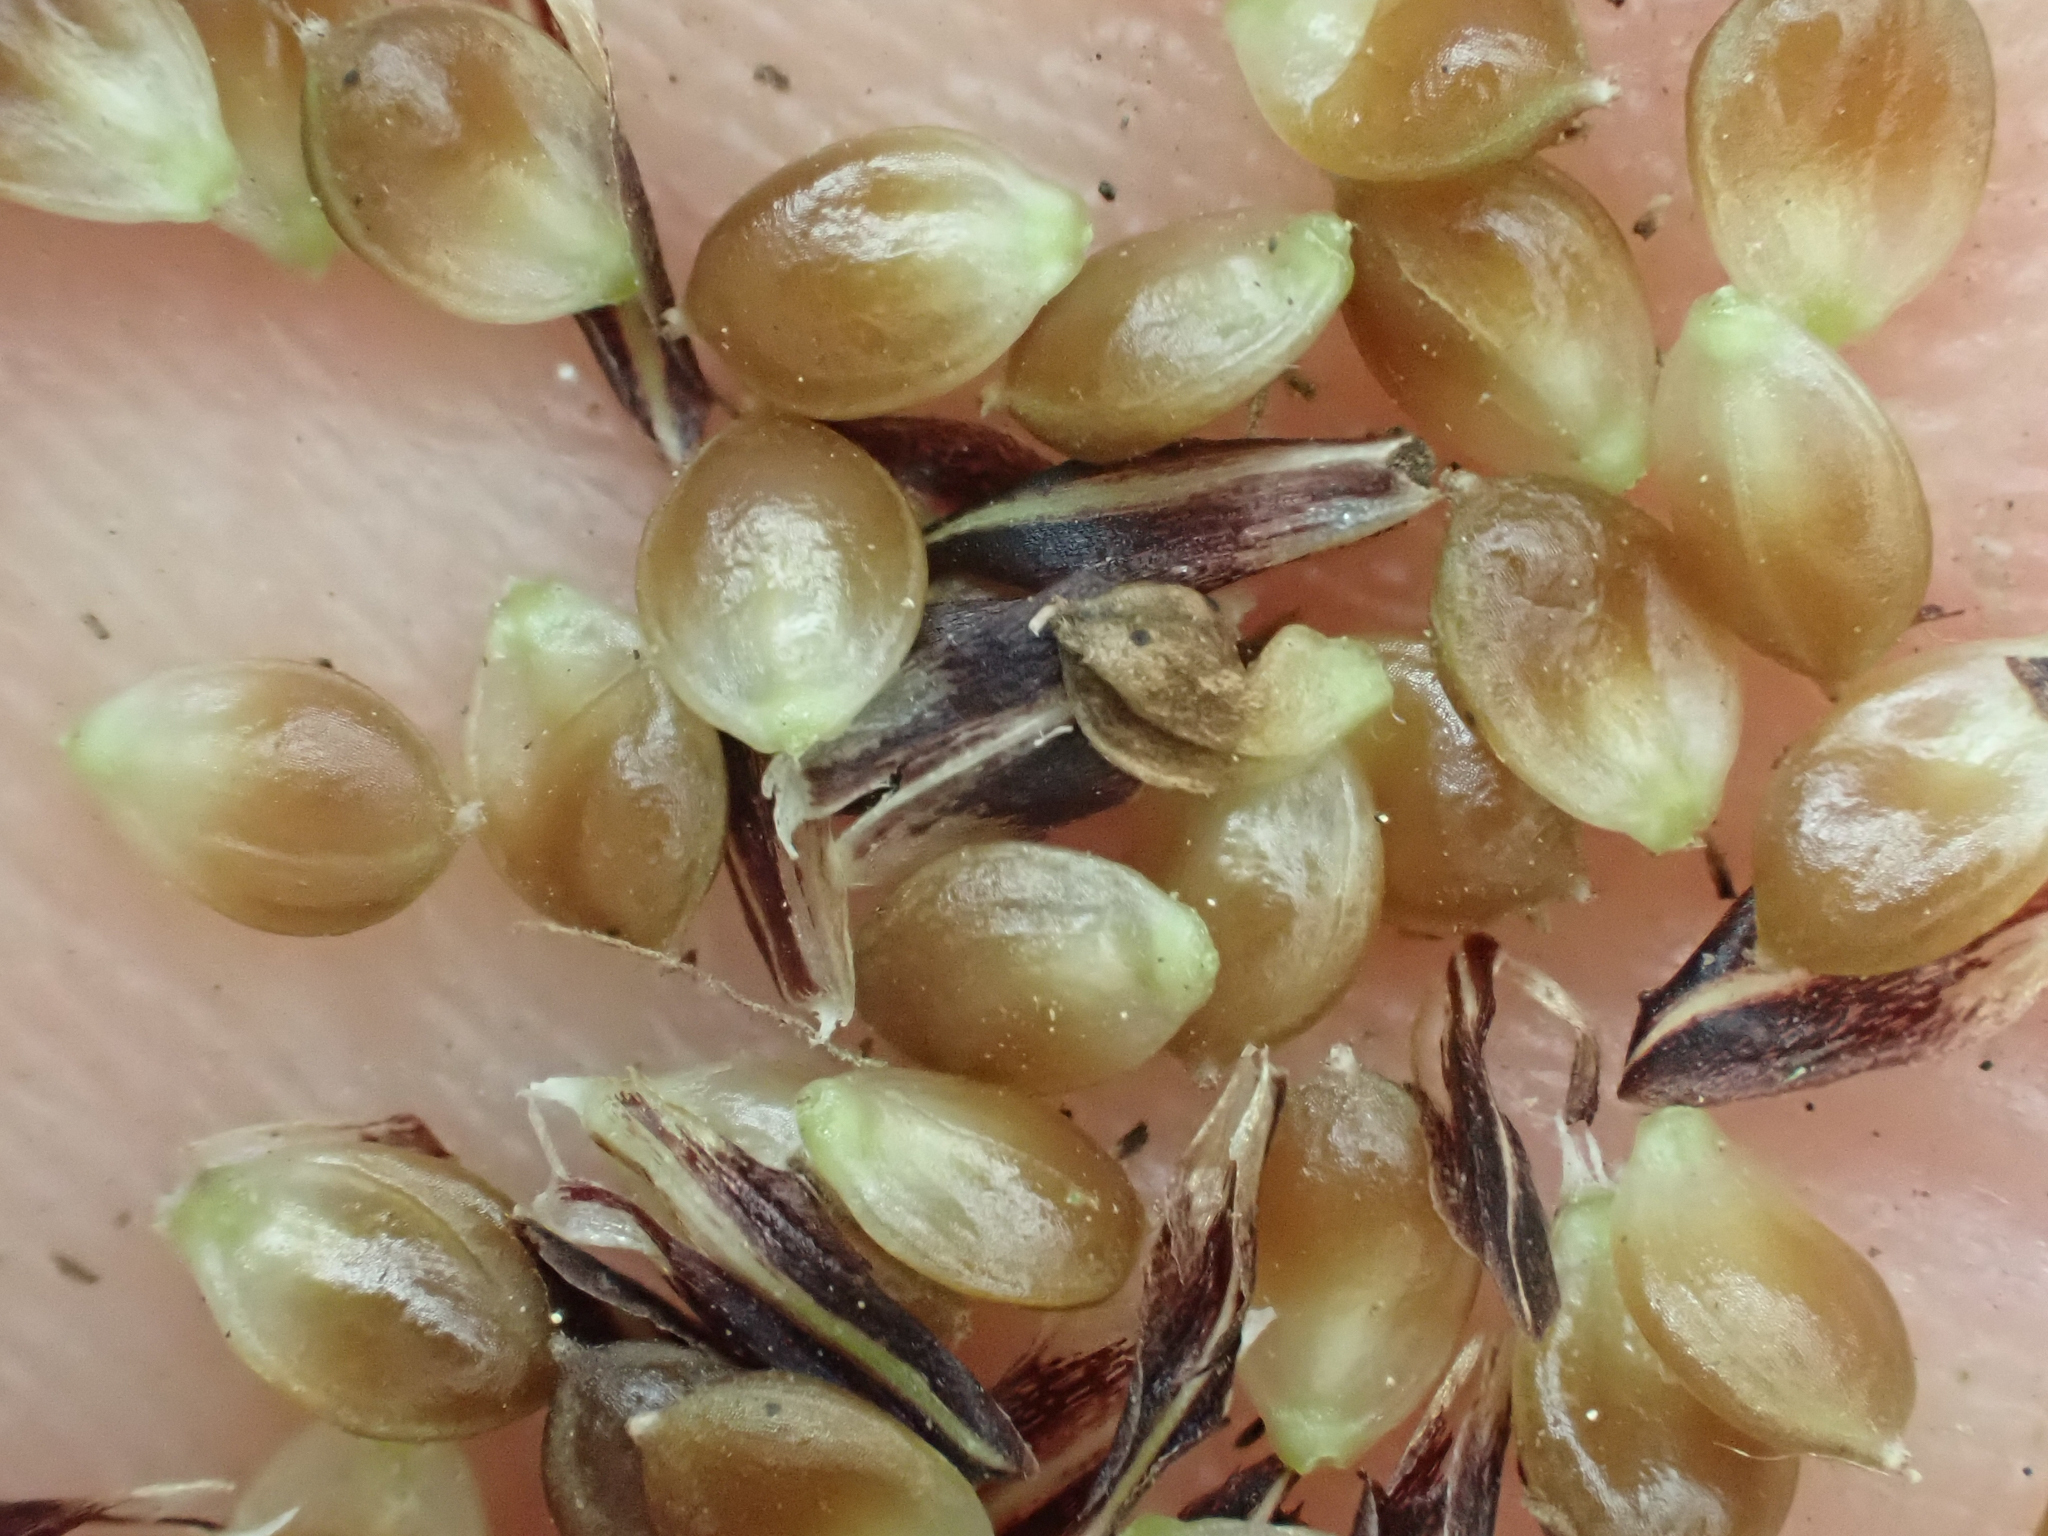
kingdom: Plantae
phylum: Tracheophyta
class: Liliopsida
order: Poales
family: Cyperaceae
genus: Carex
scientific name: Carex obnupta
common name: Slough sedge
